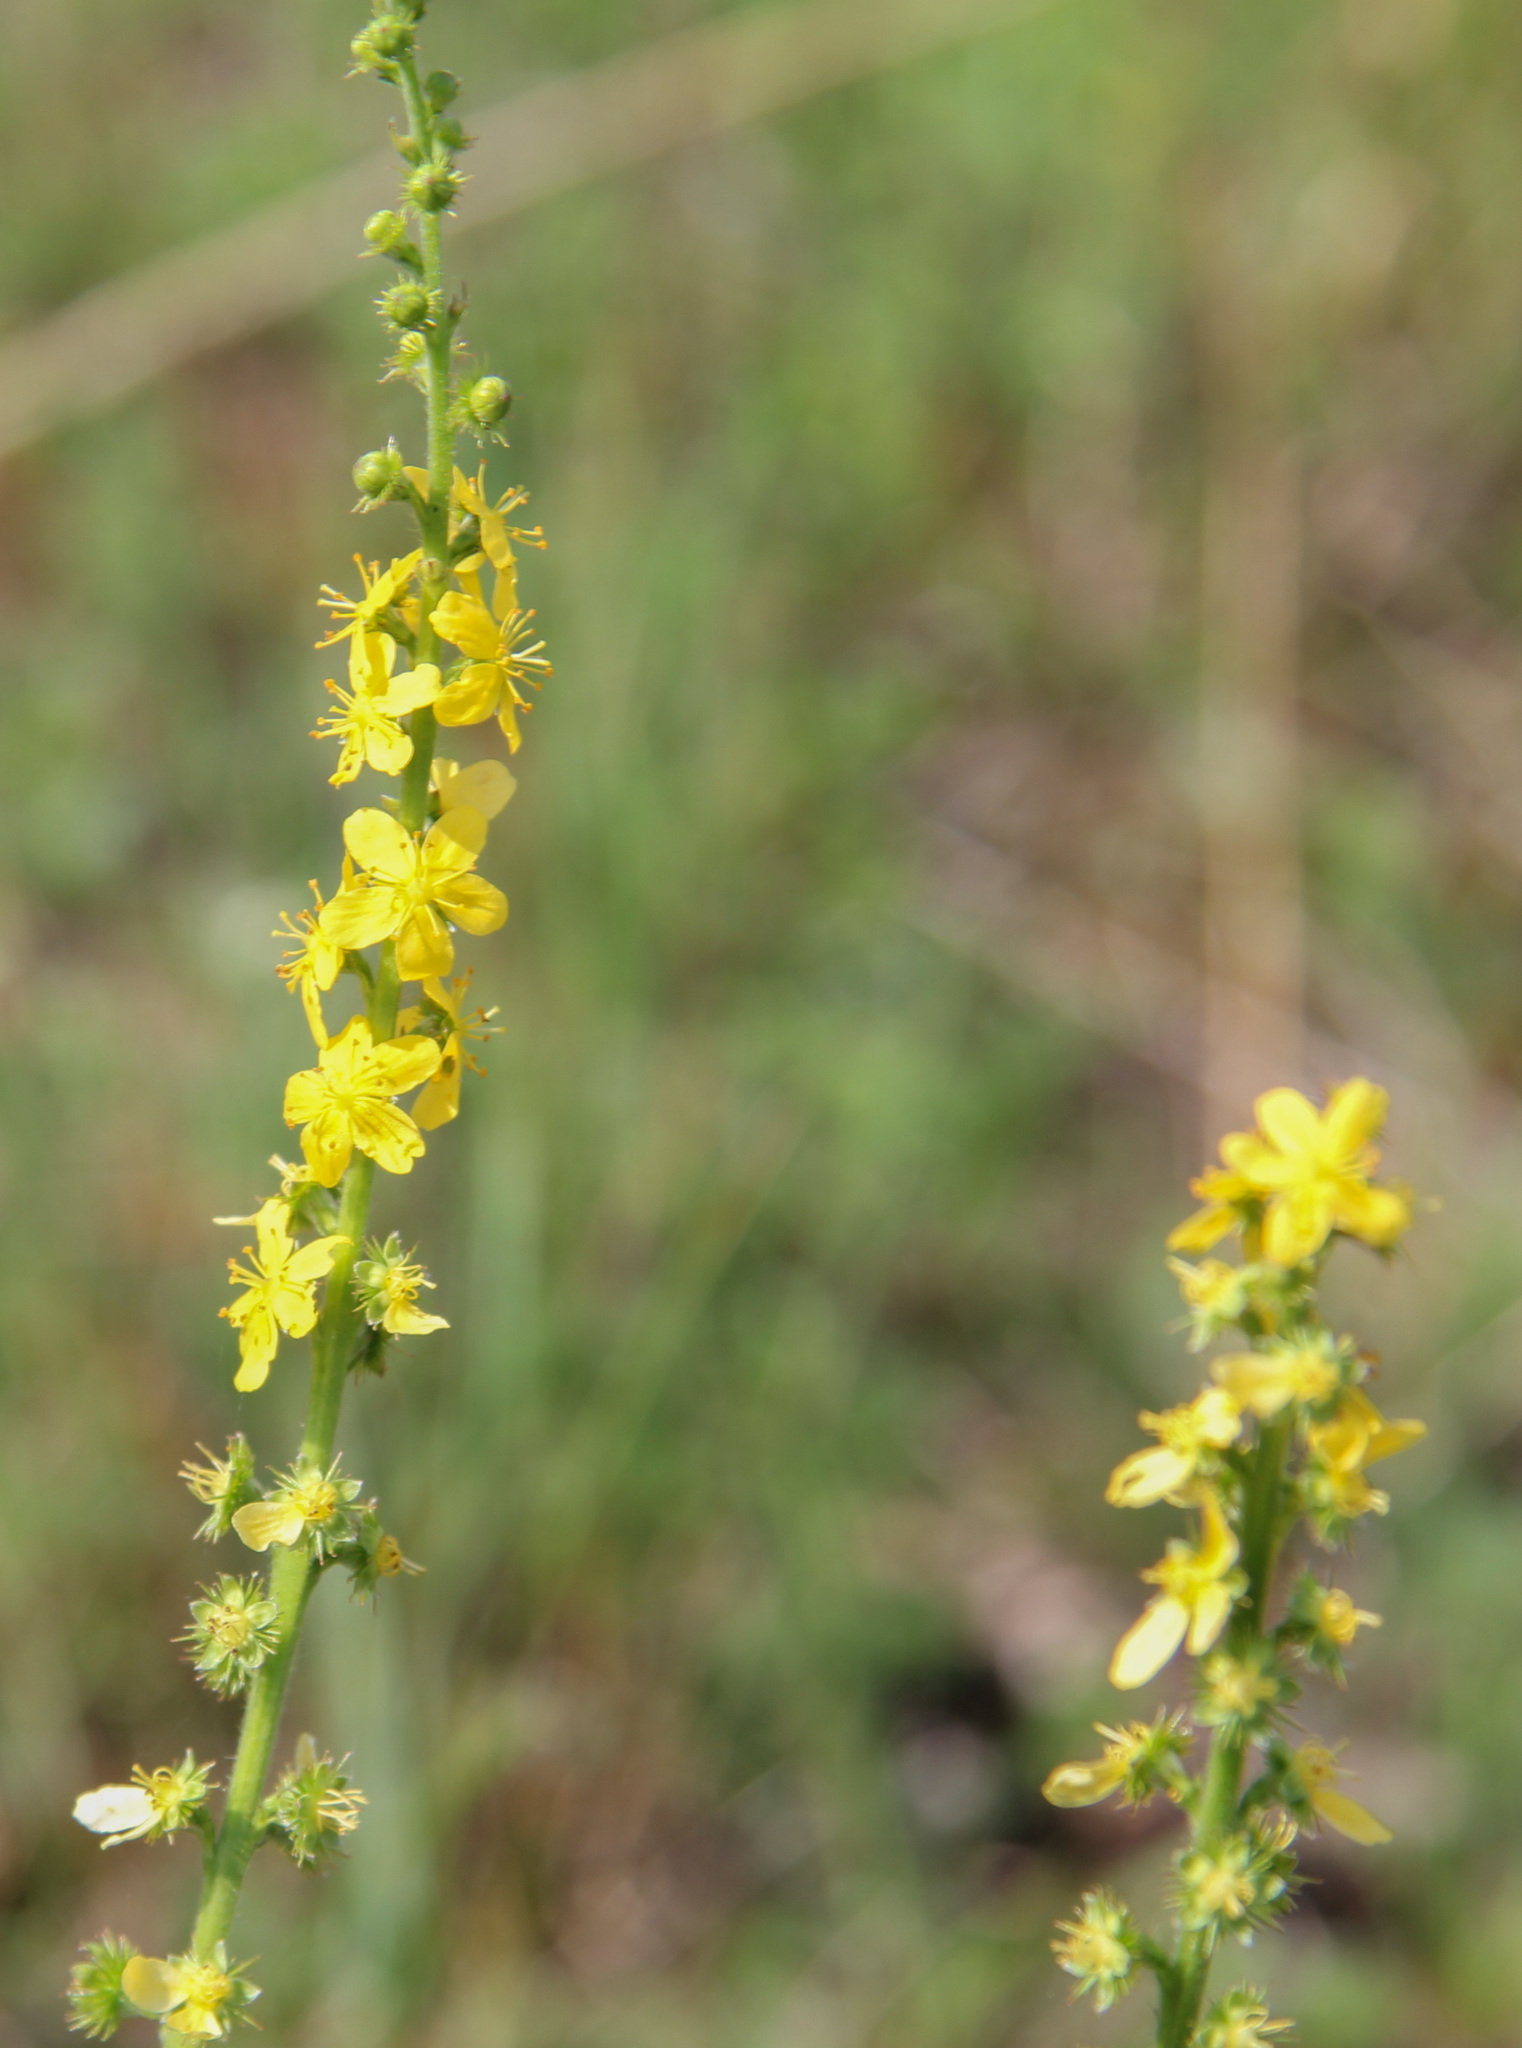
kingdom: Plantae
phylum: Tracheophyta
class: Magnoliopsida
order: Rosales
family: Rosaceae
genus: Agrimonia
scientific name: Agrimonia eupatoria
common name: Agrimony
